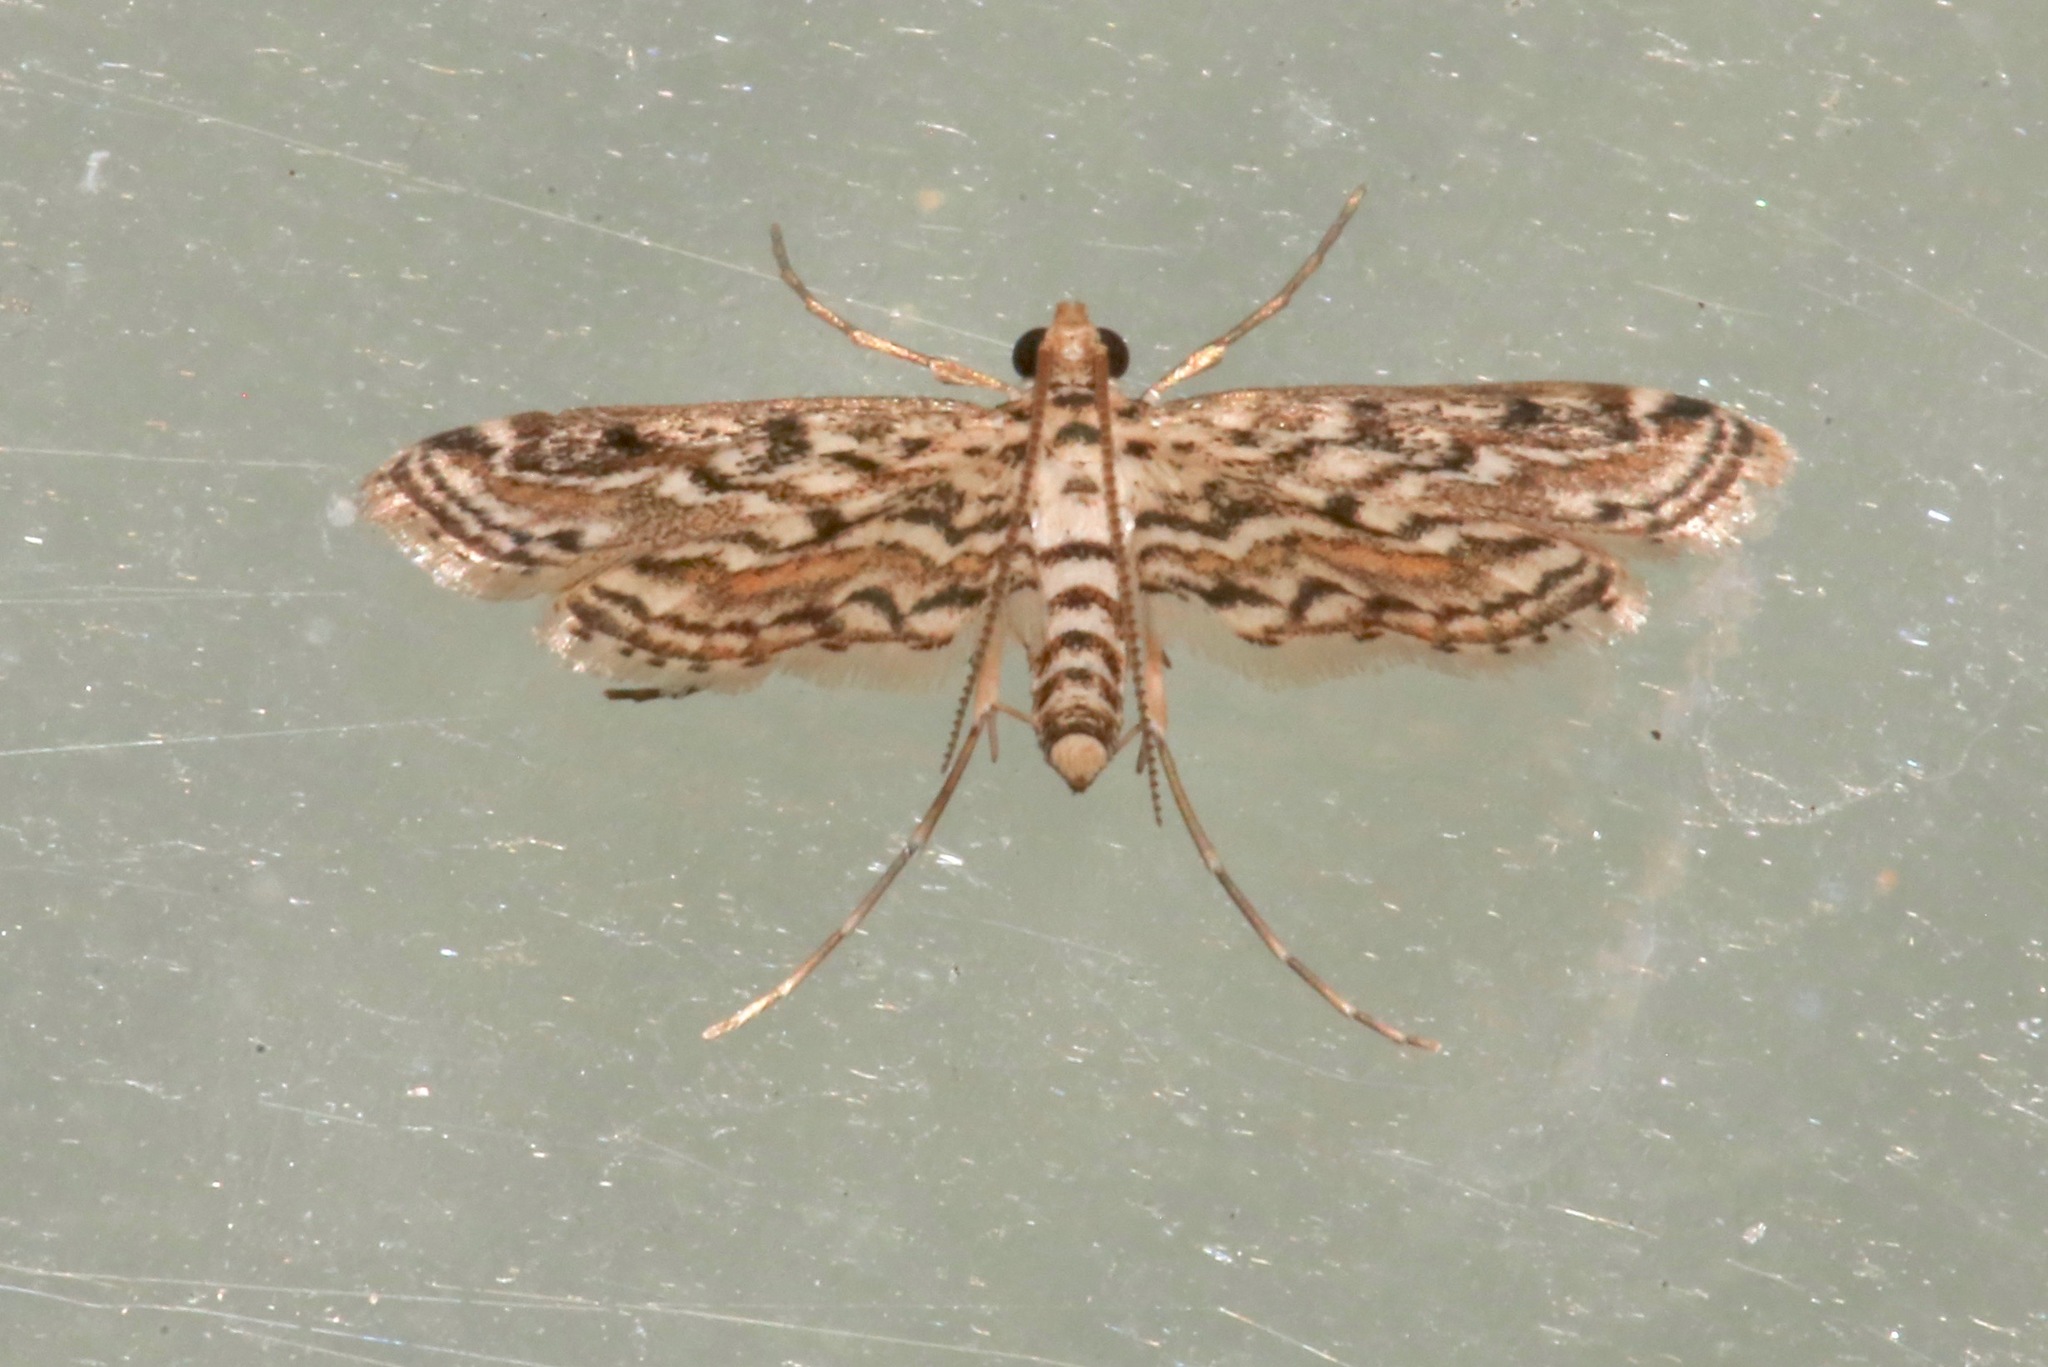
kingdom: Animalia
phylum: Arthropoda
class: Insecta
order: Lepidoptera
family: Crambidae
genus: Parapoynx
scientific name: Parapoynx allionealis
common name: Bladderwort casemaker
